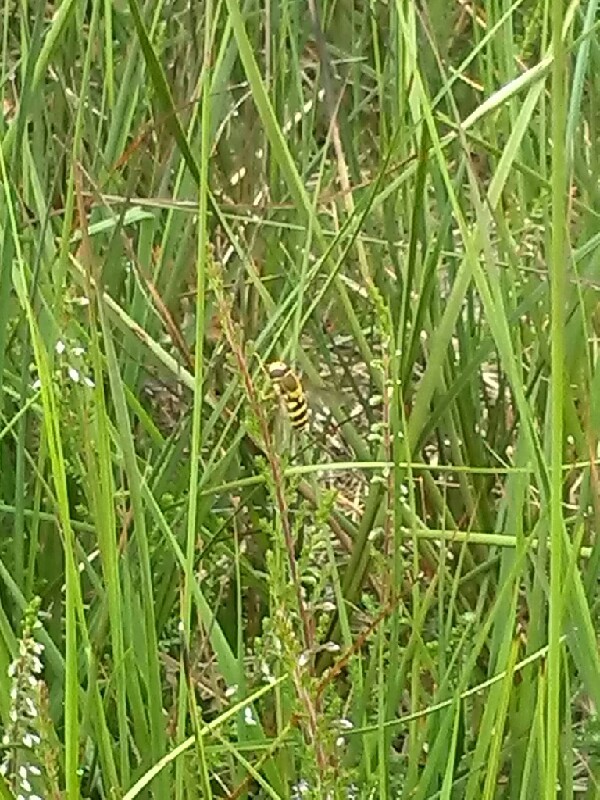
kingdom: Animalia
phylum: Arthropoda
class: Insecta
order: Diptera
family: Syrphidae
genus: Syrphus
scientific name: Syrphus
